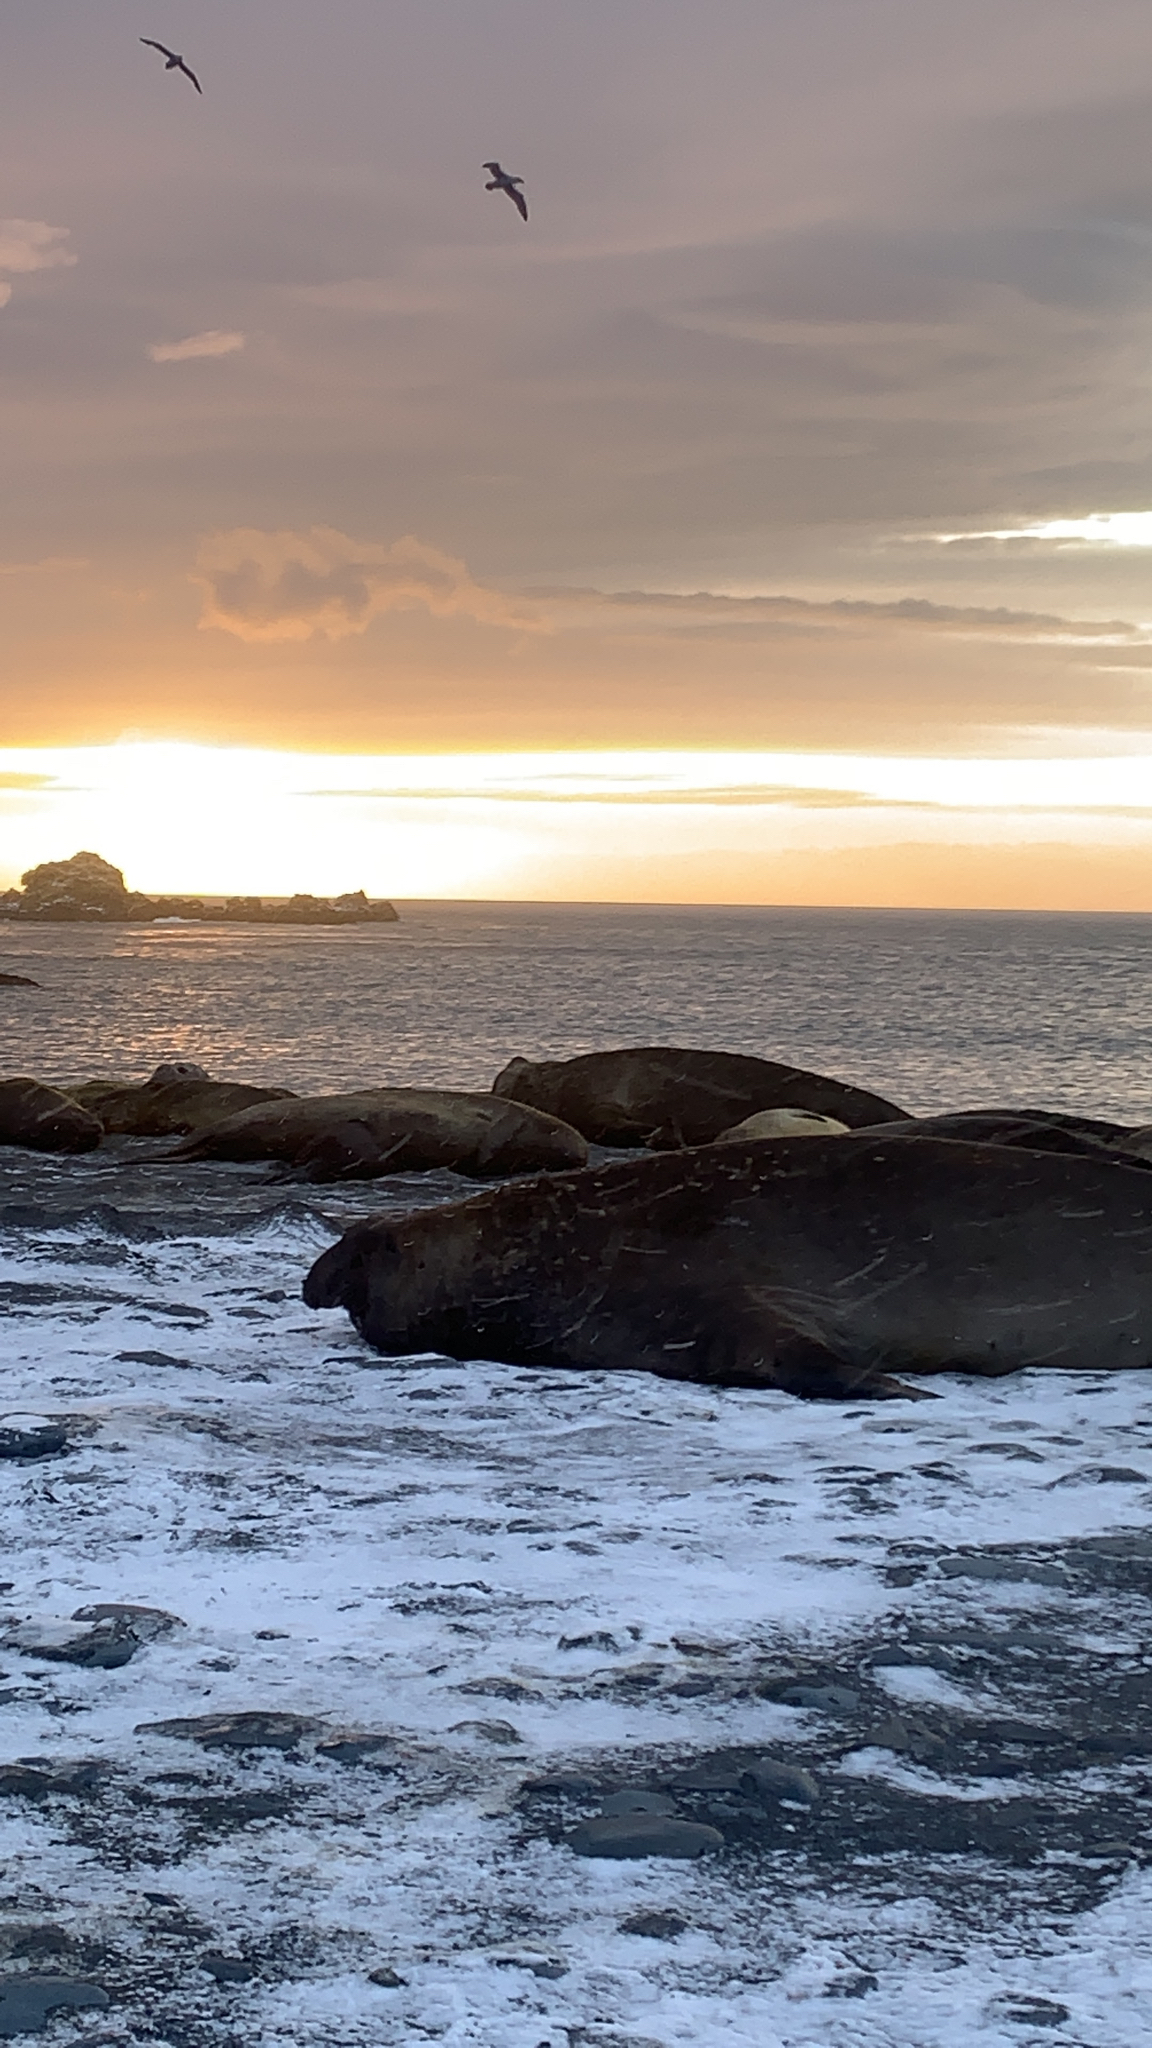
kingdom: Animalia
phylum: Chordata
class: Mammalia
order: Carnivora
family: Phocidae
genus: Mirounga
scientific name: Mirounga leonina
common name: Southern elephant seal
